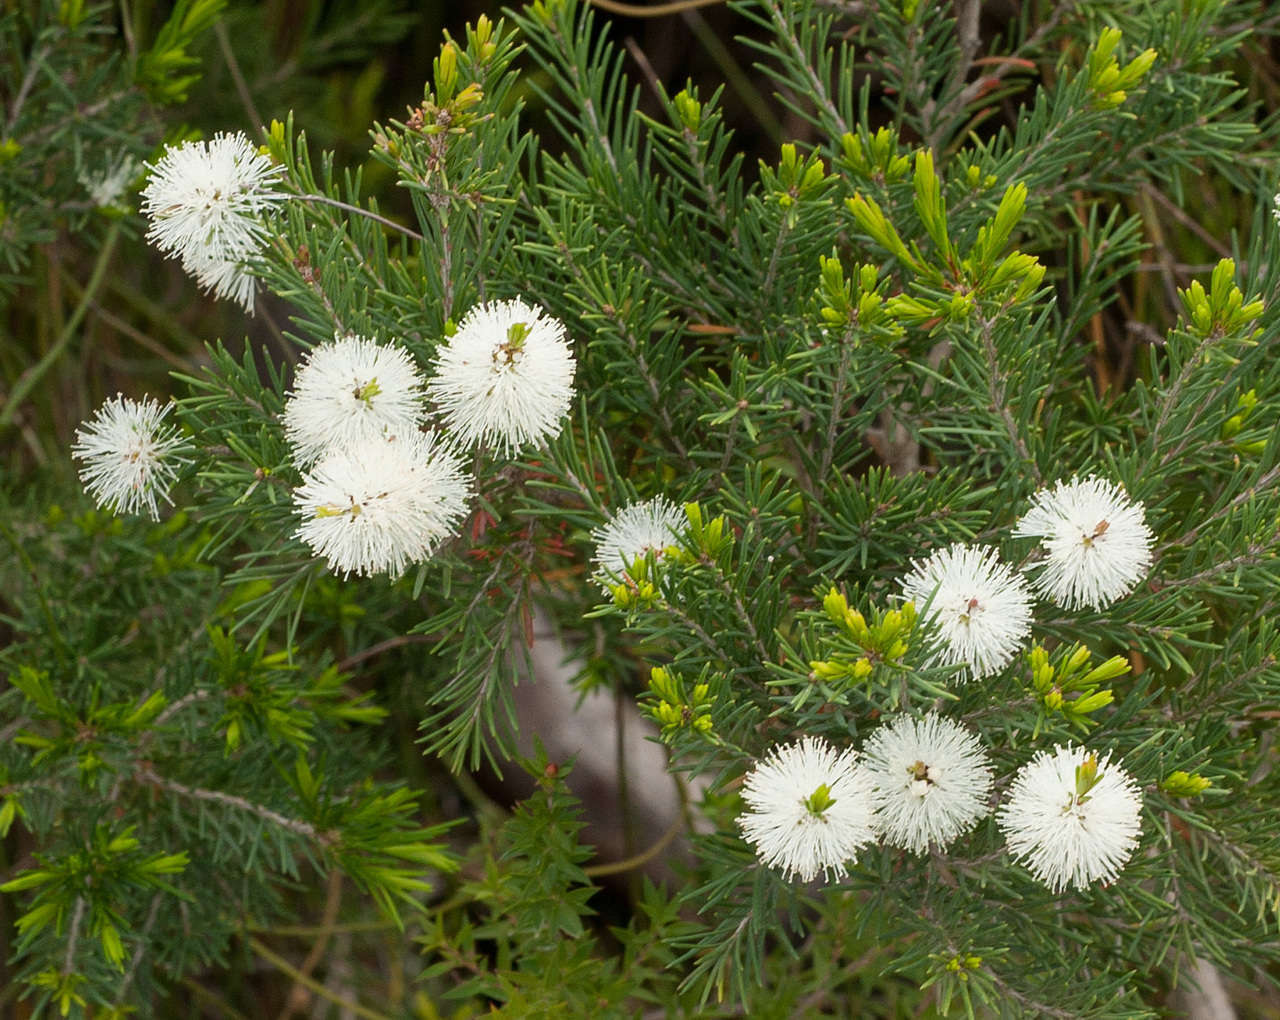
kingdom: Plantae
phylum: Tracheophyta
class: Magnoliopsida
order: Myrtales
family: Myrtaceae
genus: Melaleuca
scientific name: Melaleuca ericifolia
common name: Paperbark teatree
